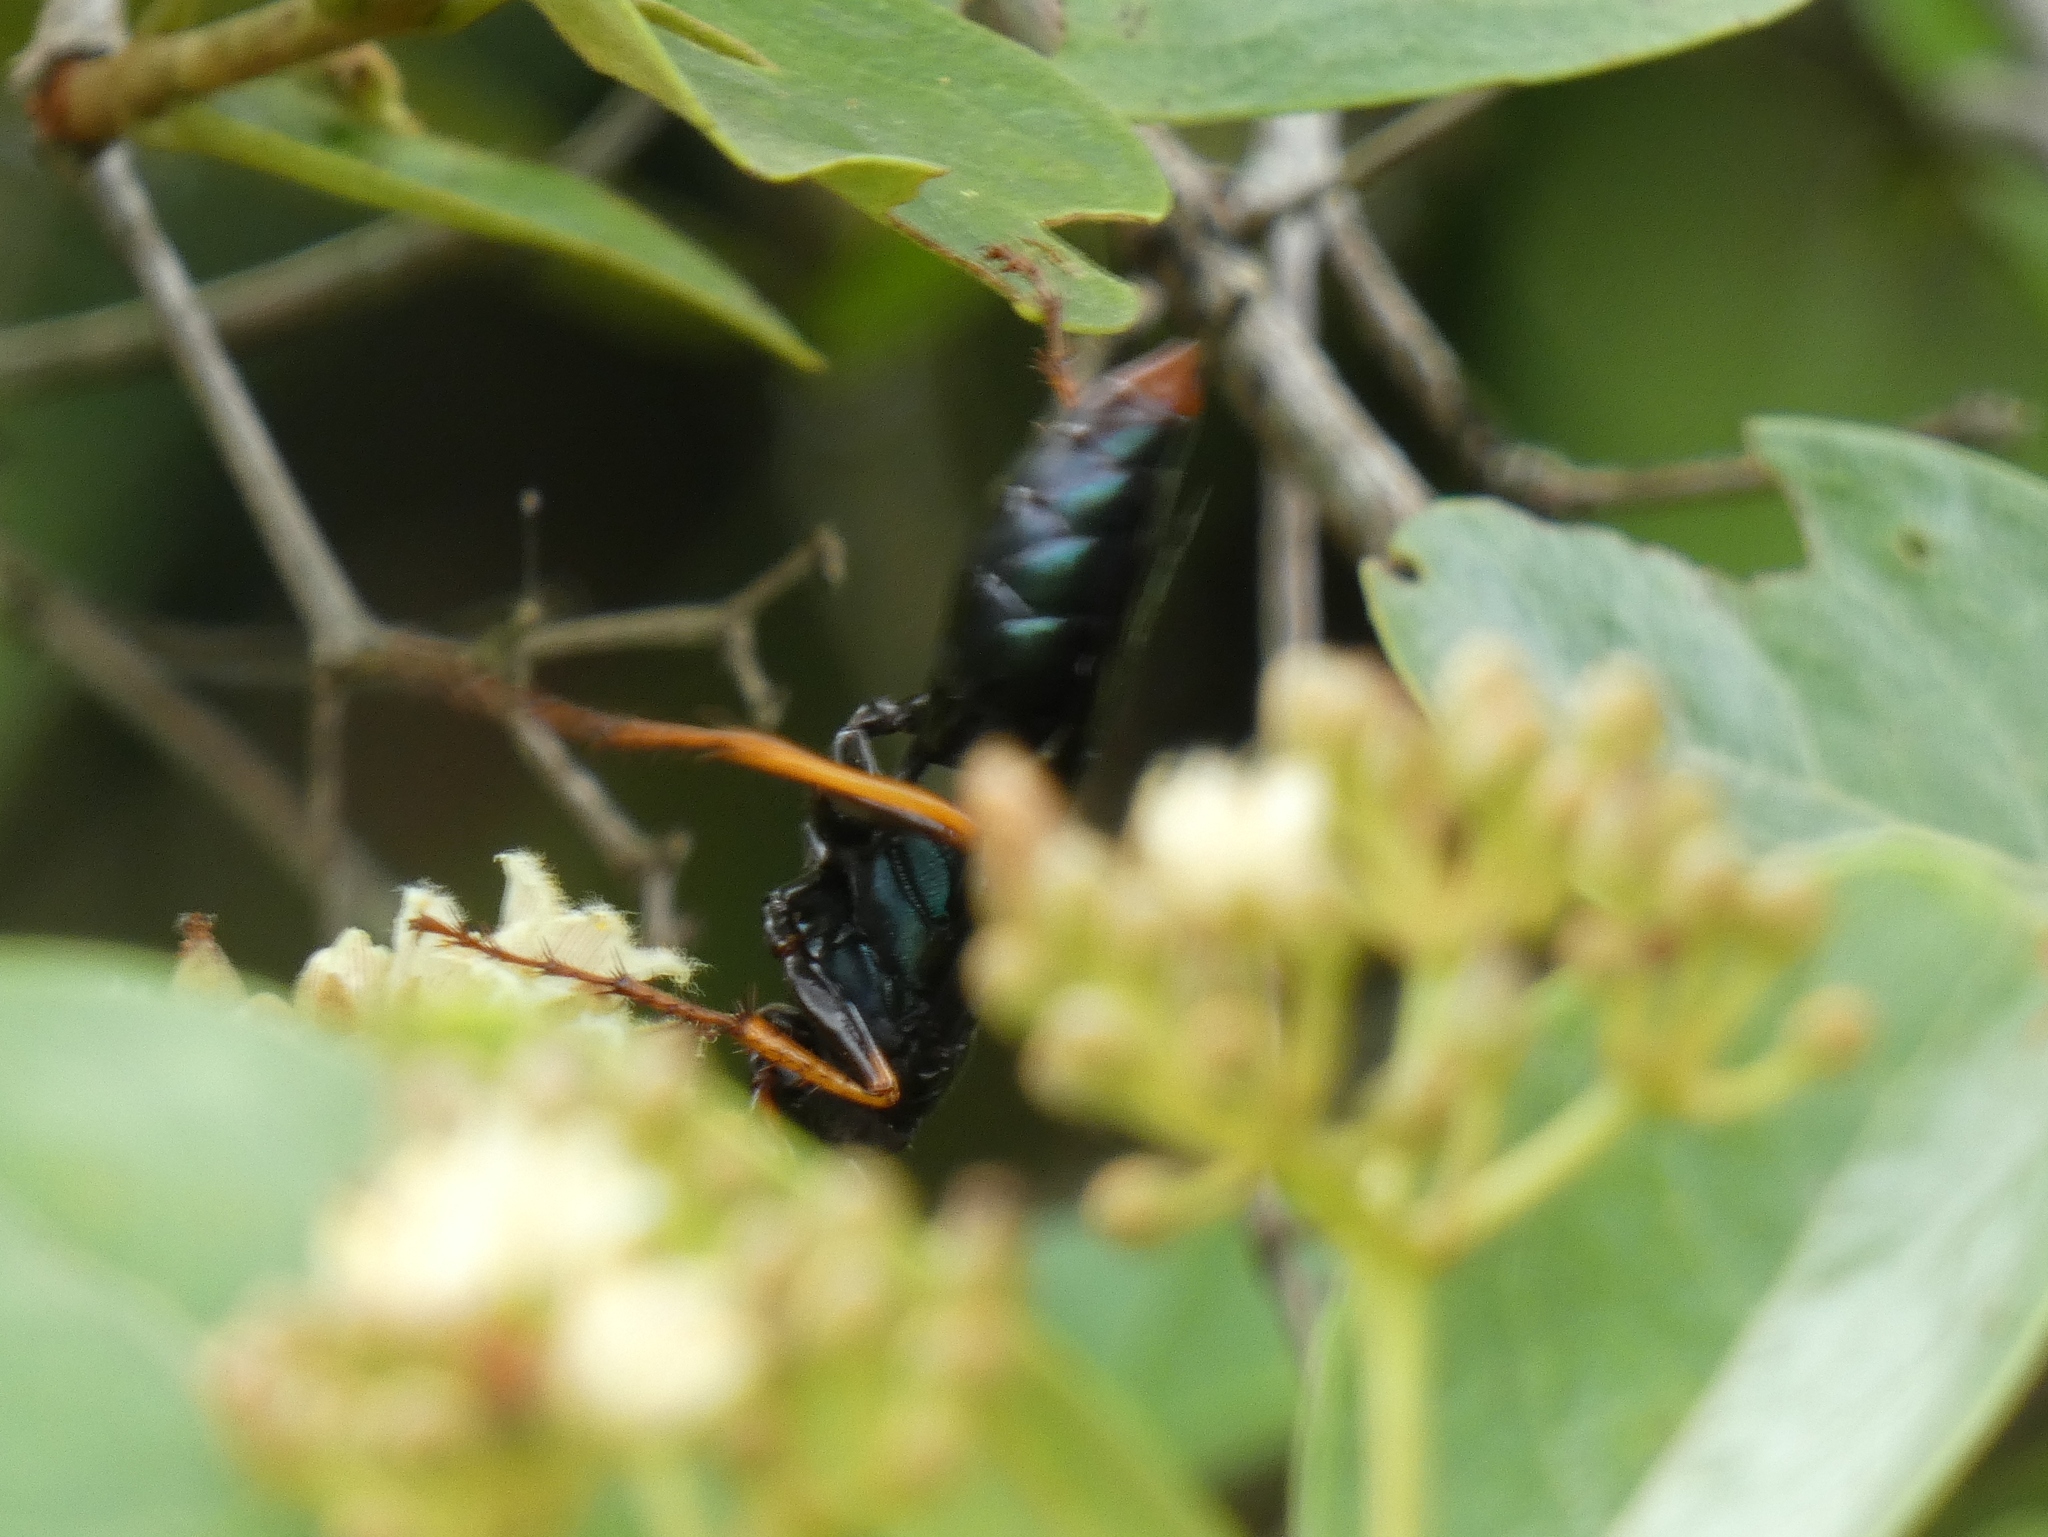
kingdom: Animalia
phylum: Arthropoda
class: Insecta
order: Hymenoptera
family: Sphecidae
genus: Chlorion
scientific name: Chlorion maxillosum
